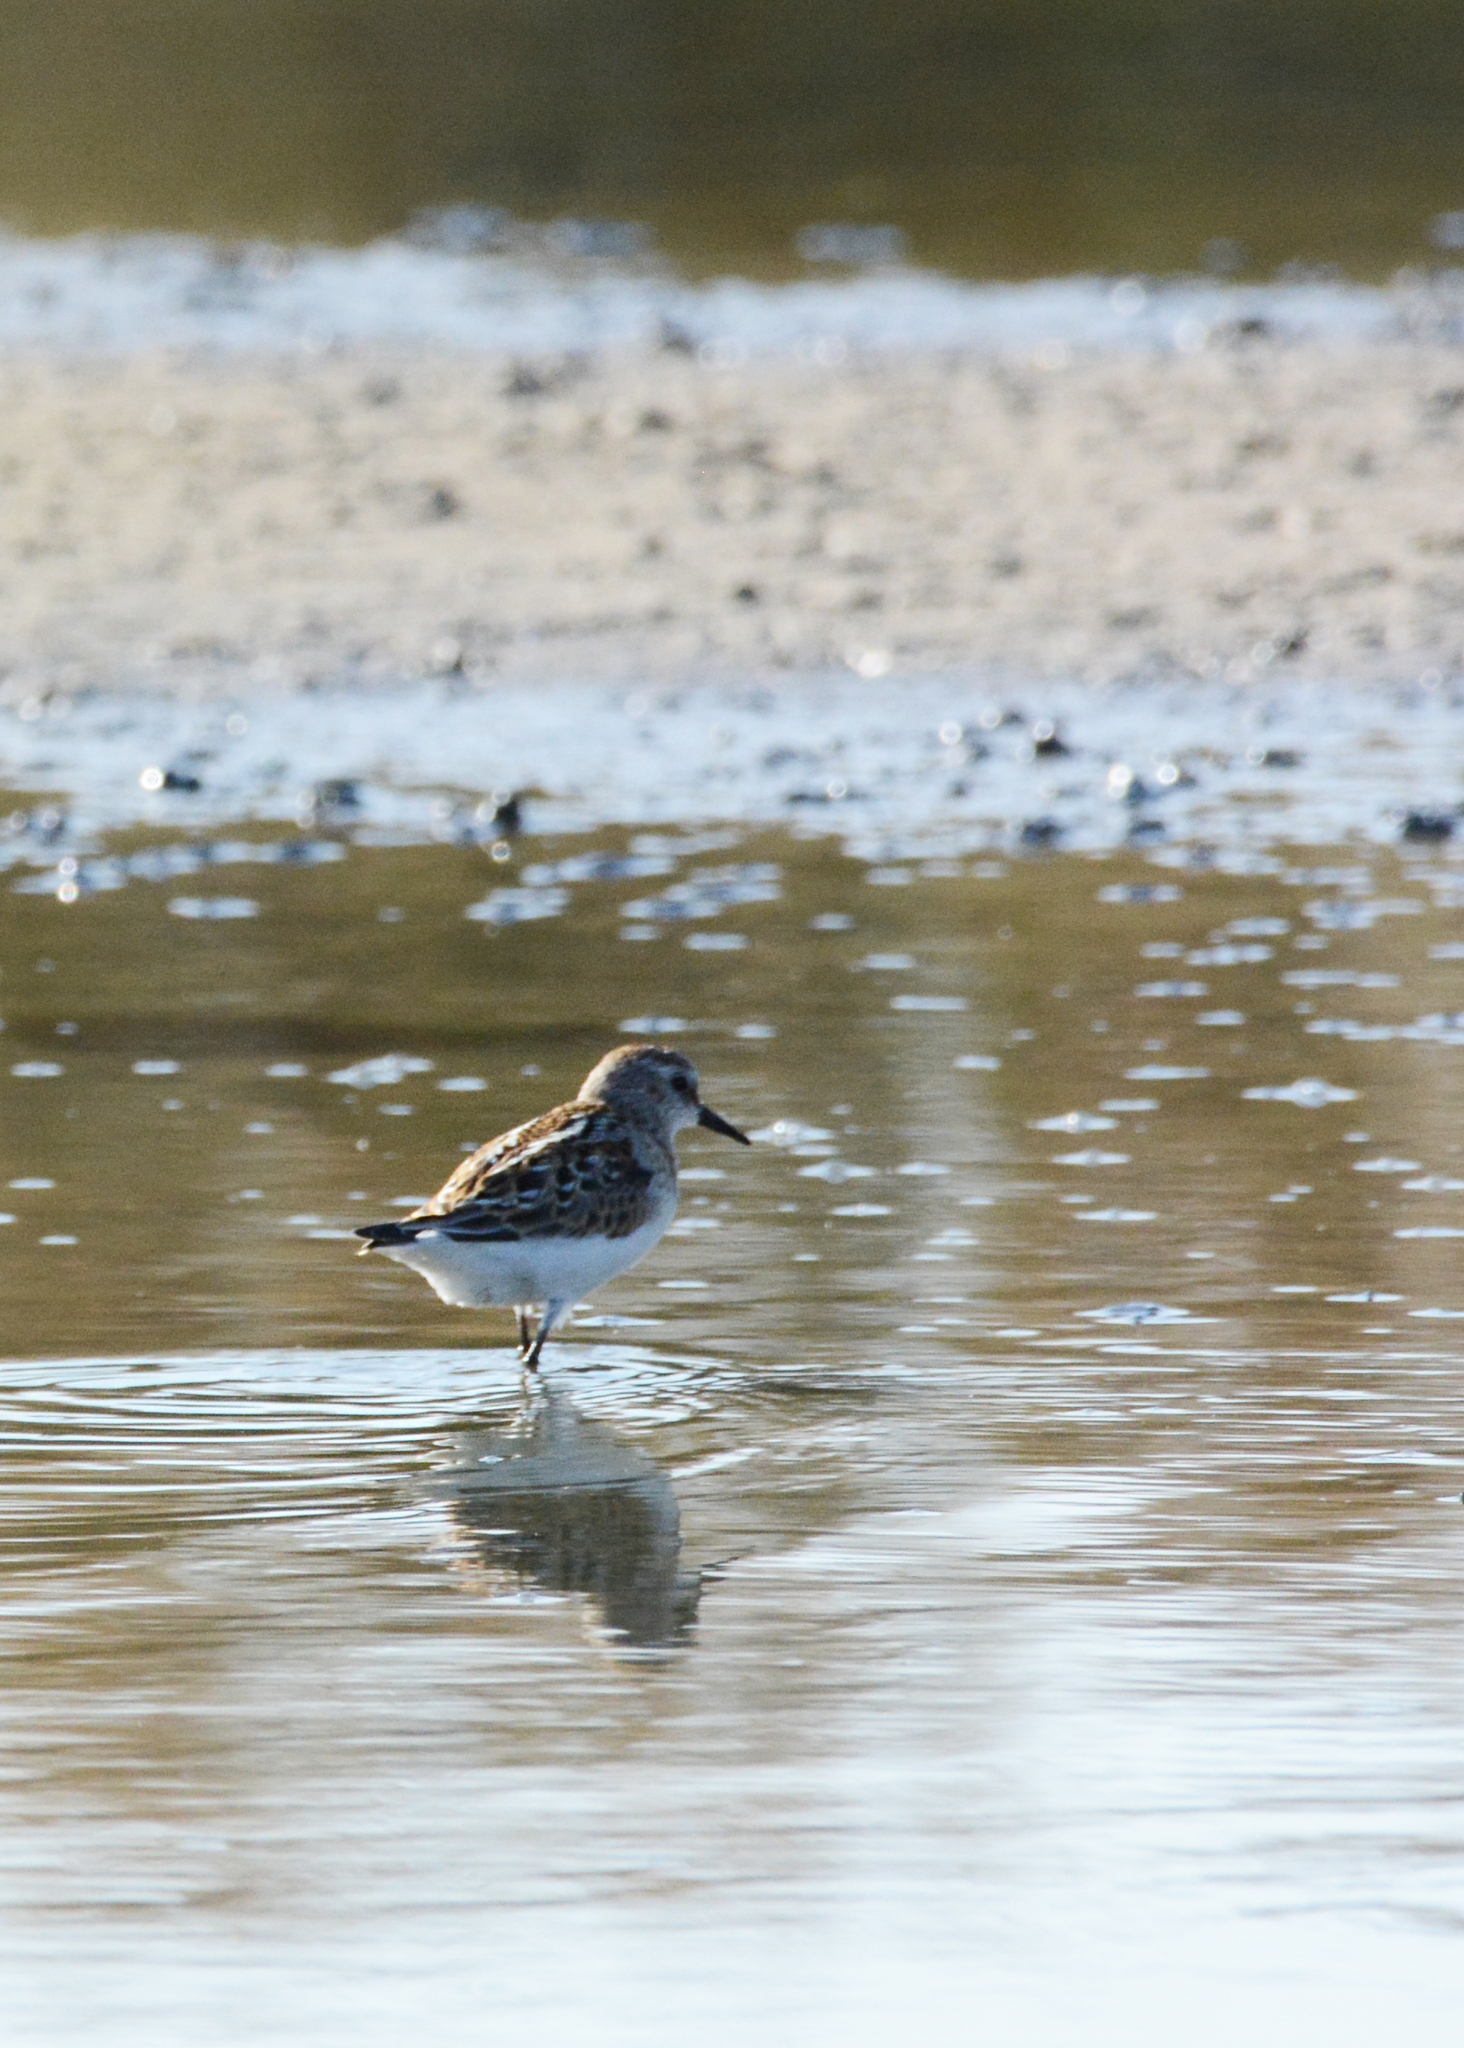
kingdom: Animalia
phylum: Chordata
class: Aves
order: Charadriiformes
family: Scolopacidae
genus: Calidris
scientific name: Calidris minuta
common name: Little stint
